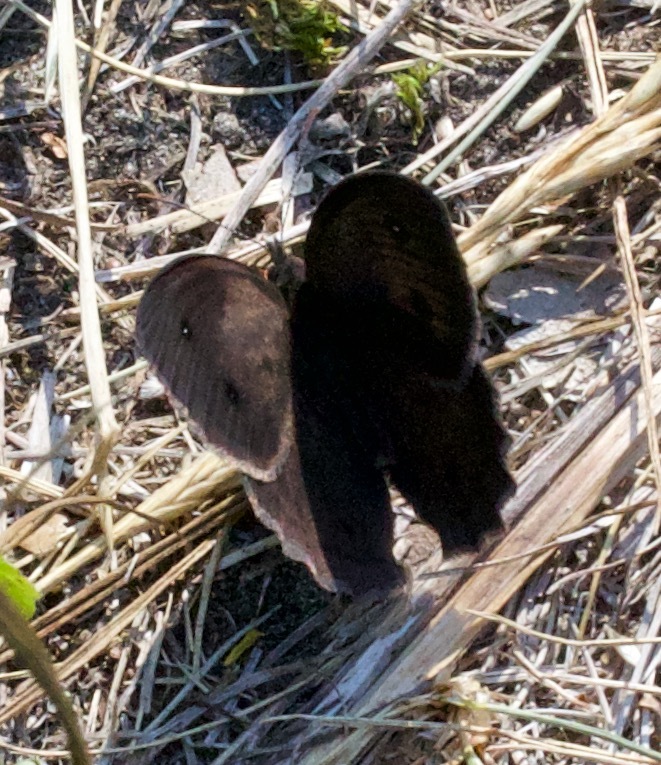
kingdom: Animalia
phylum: Arthropoda
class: Insecta
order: Lepidoptera
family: Nymphalidae
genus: Cercyonis
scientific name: Cercyonis pegala
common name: Common wood-nymph
